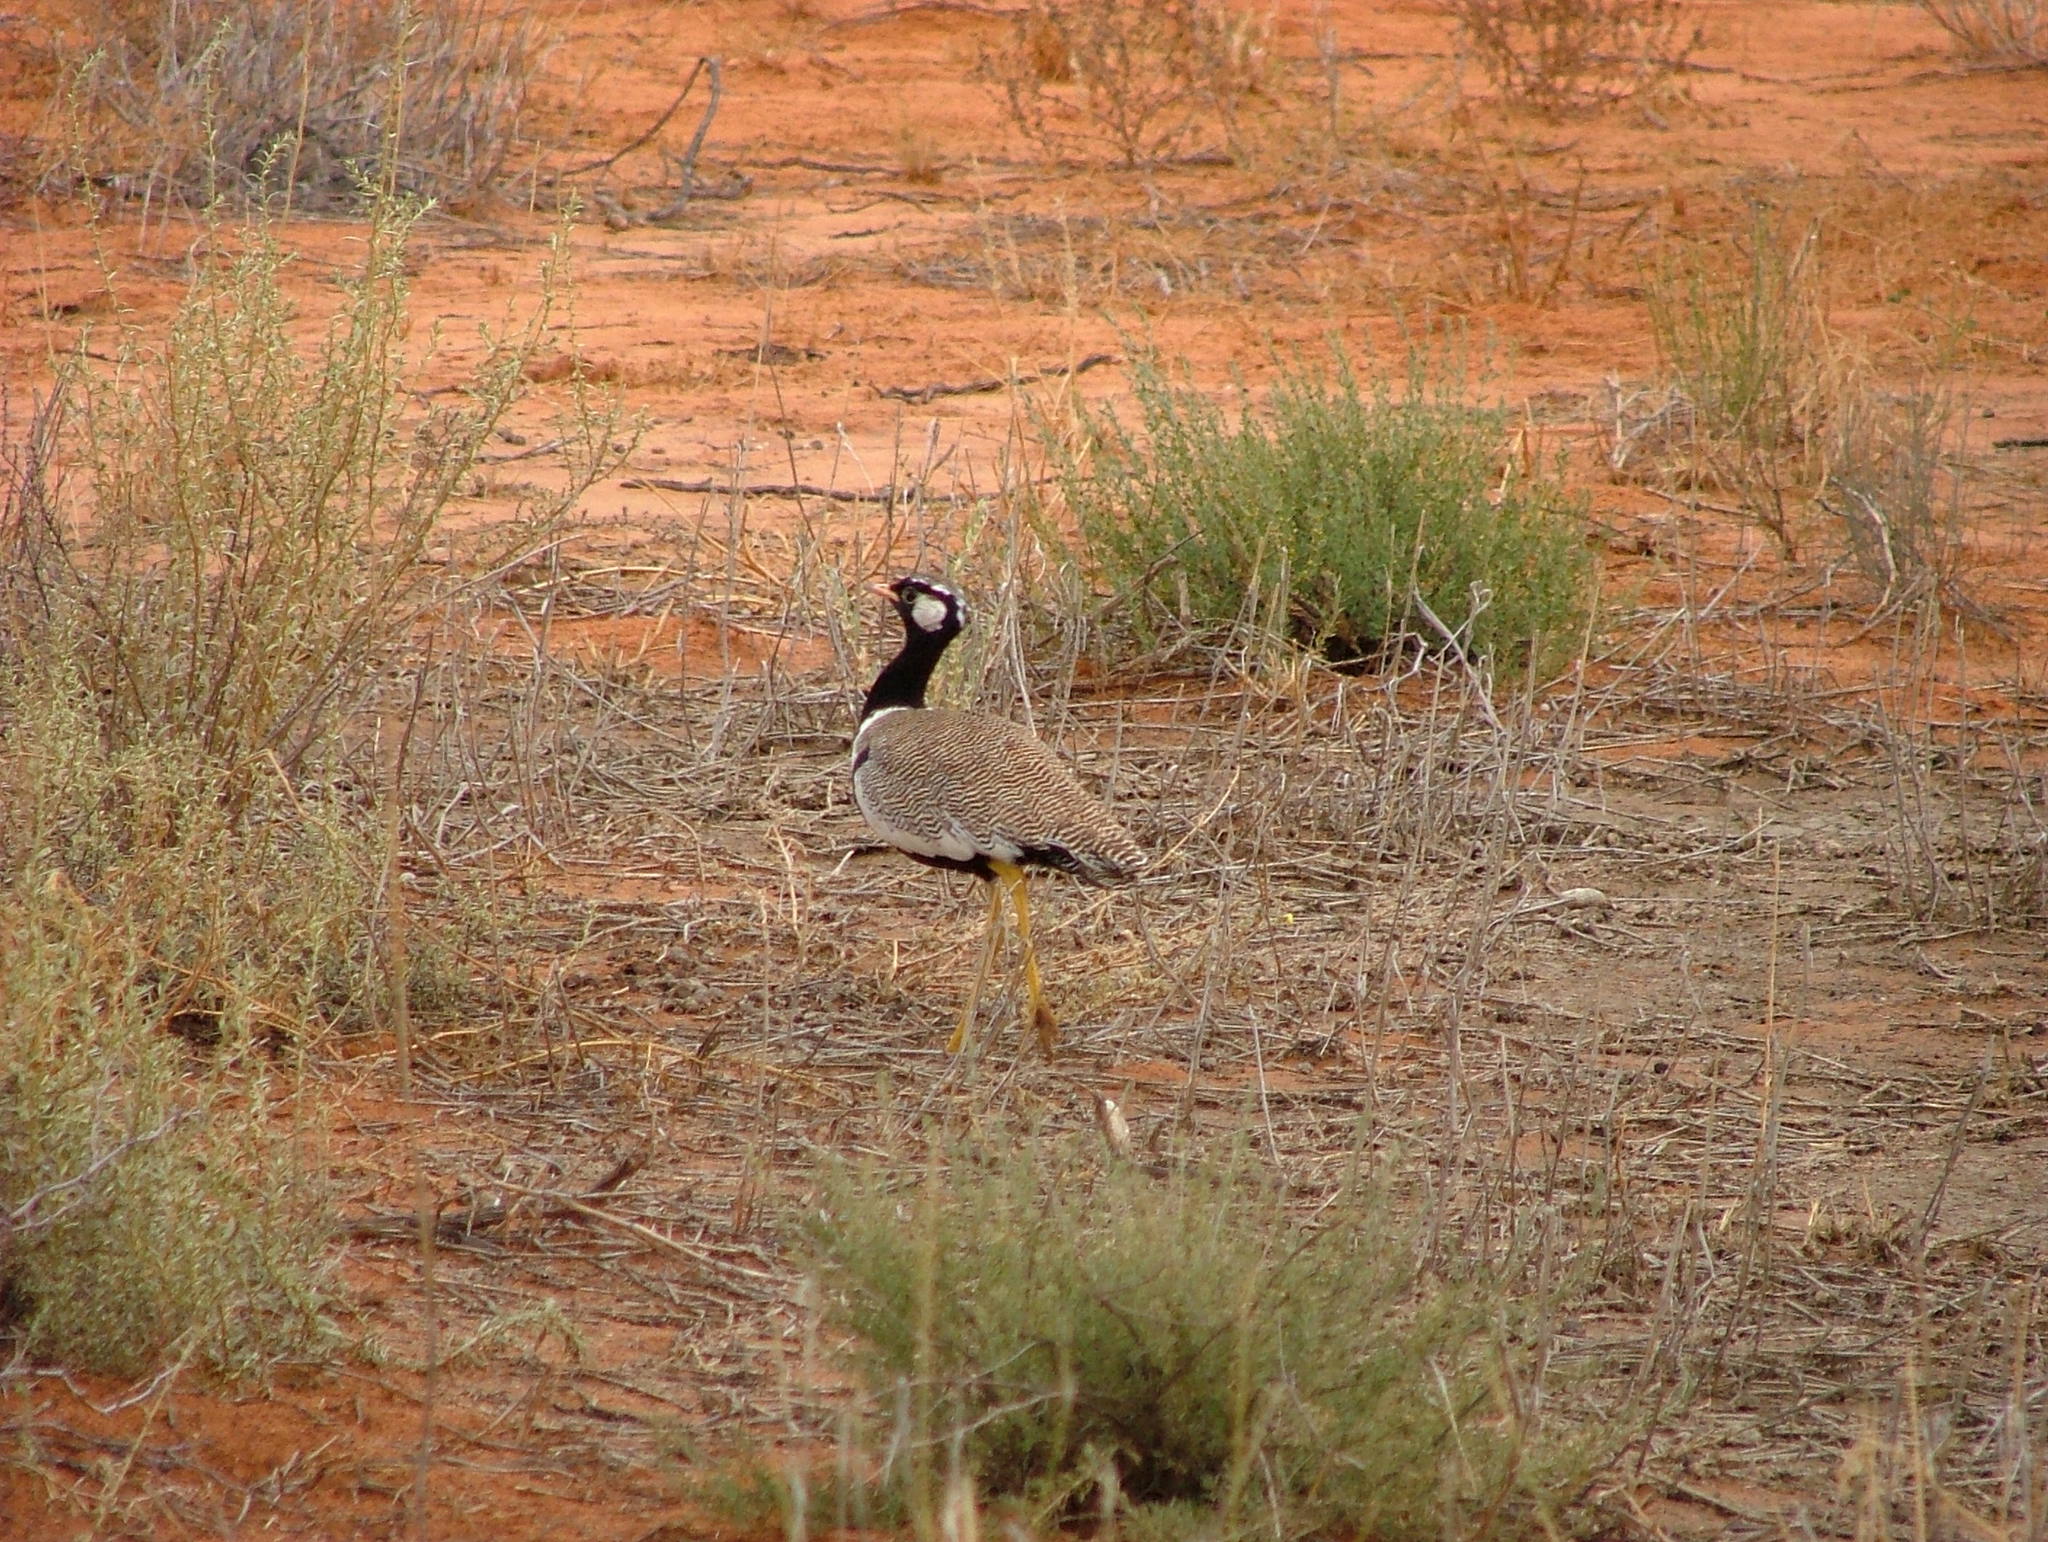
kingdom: Animalia
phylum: Chordata
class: Aves
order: Otidiformes
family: Otididae
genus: Afrotis
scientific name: Afrotis afraoides
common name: Northern black korhaan
